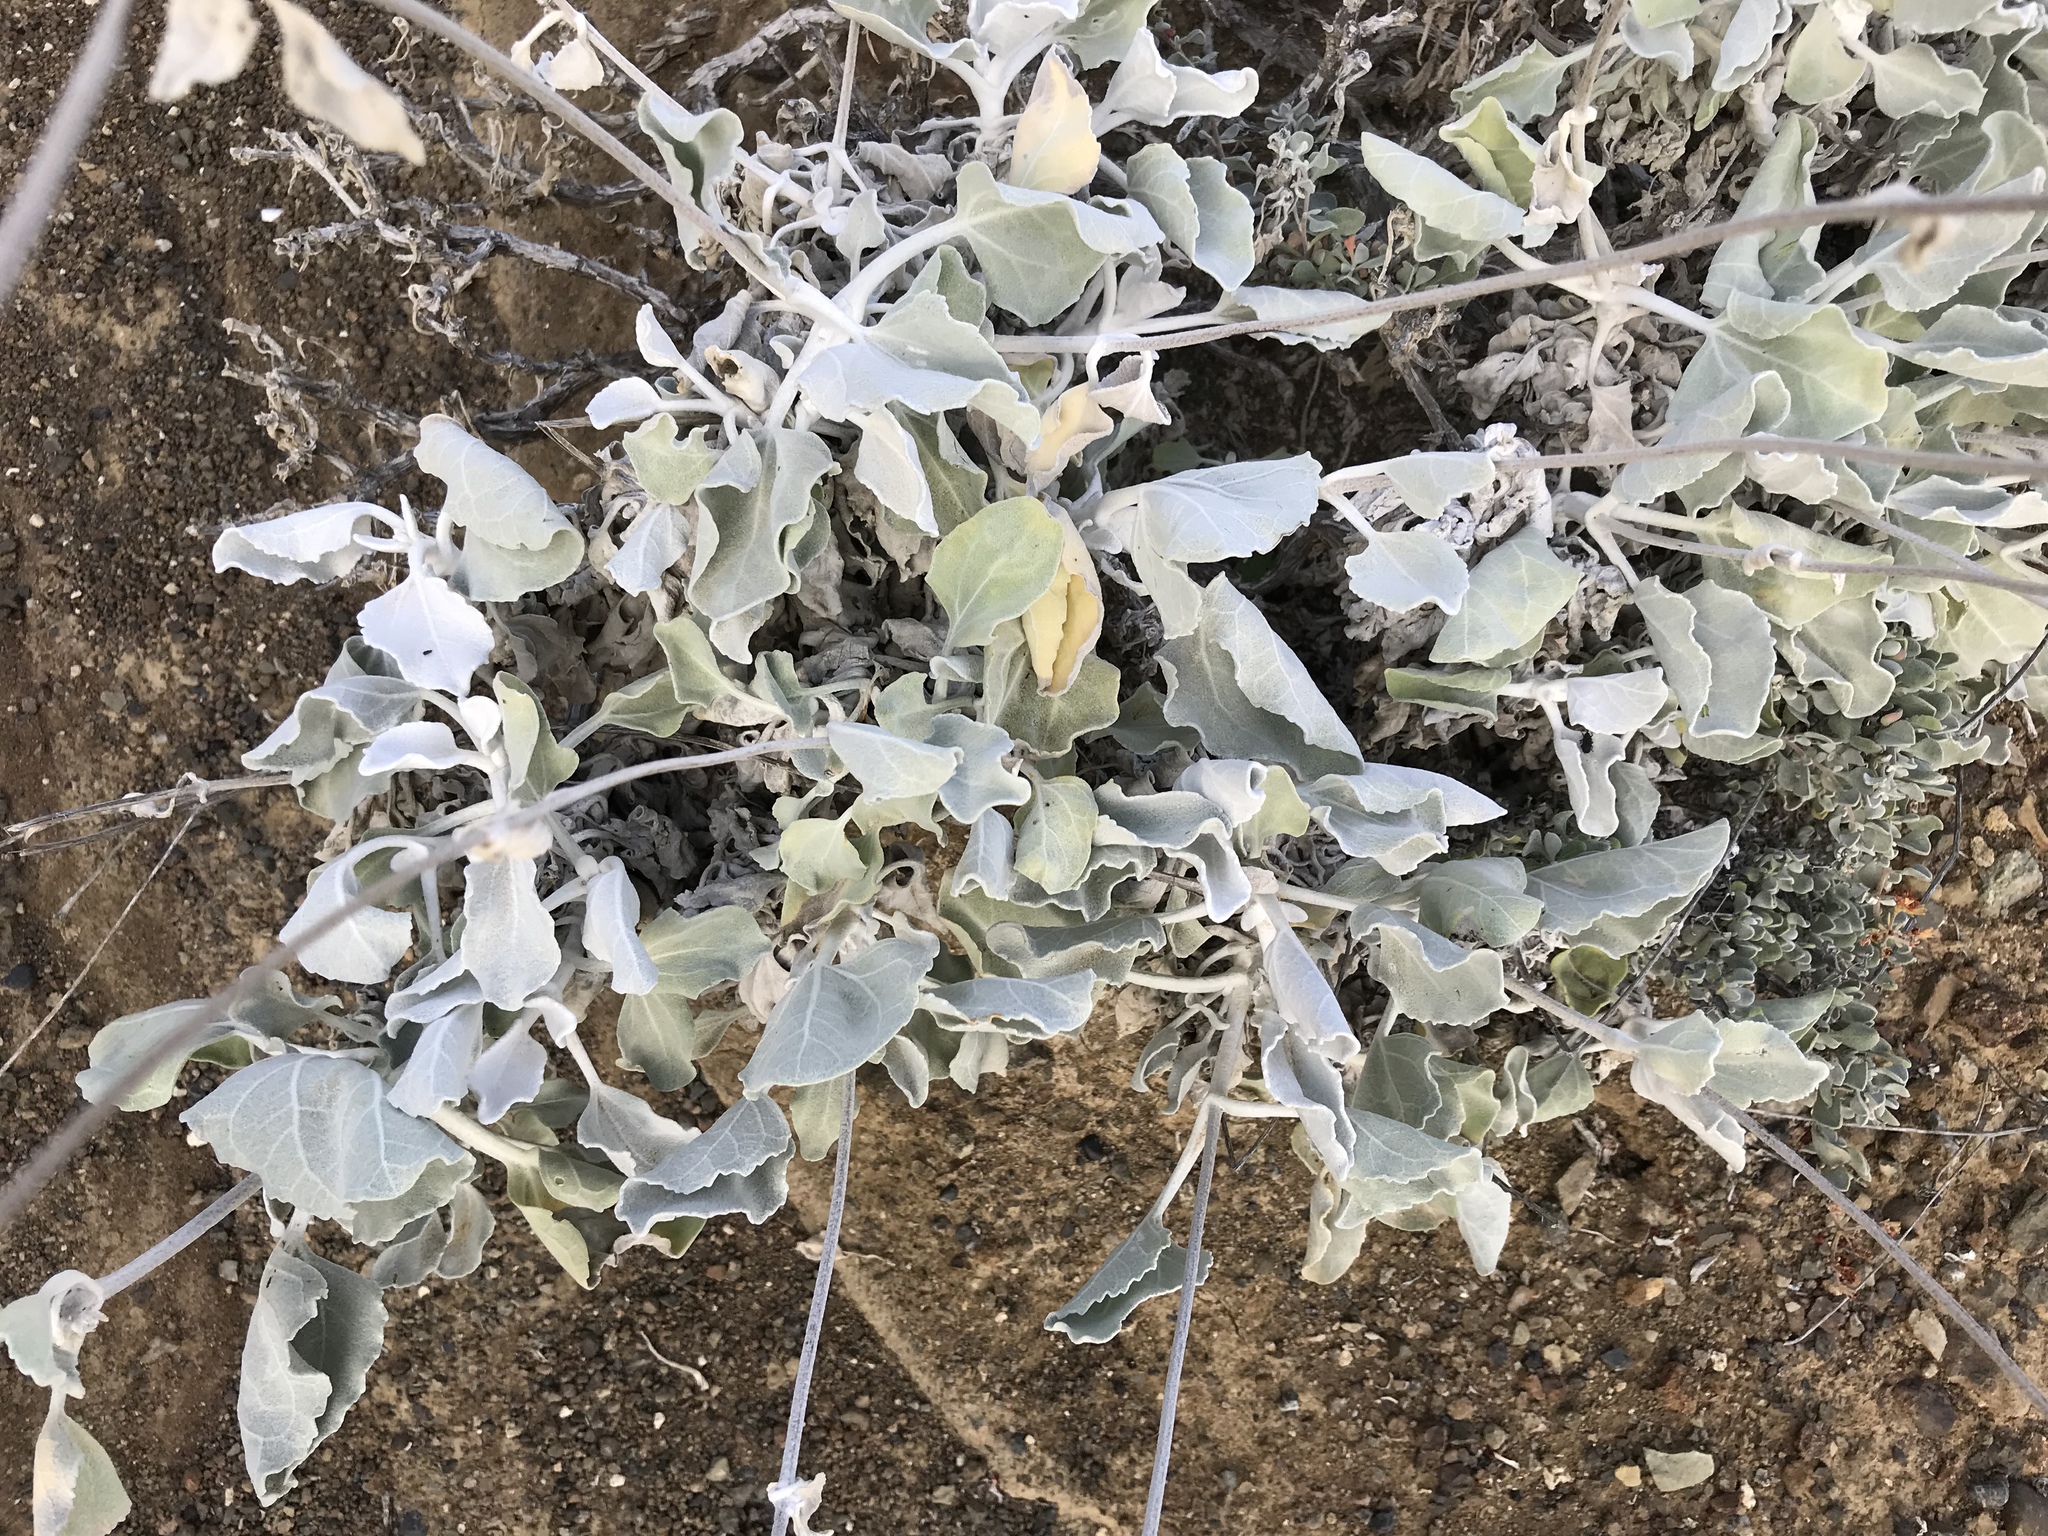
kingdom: Plantae
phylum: Tracheophyta
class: Magnoliopsida
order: Asterales
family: Asteraceae
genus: Bahiopsis
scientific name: Bahiopsis lanata
